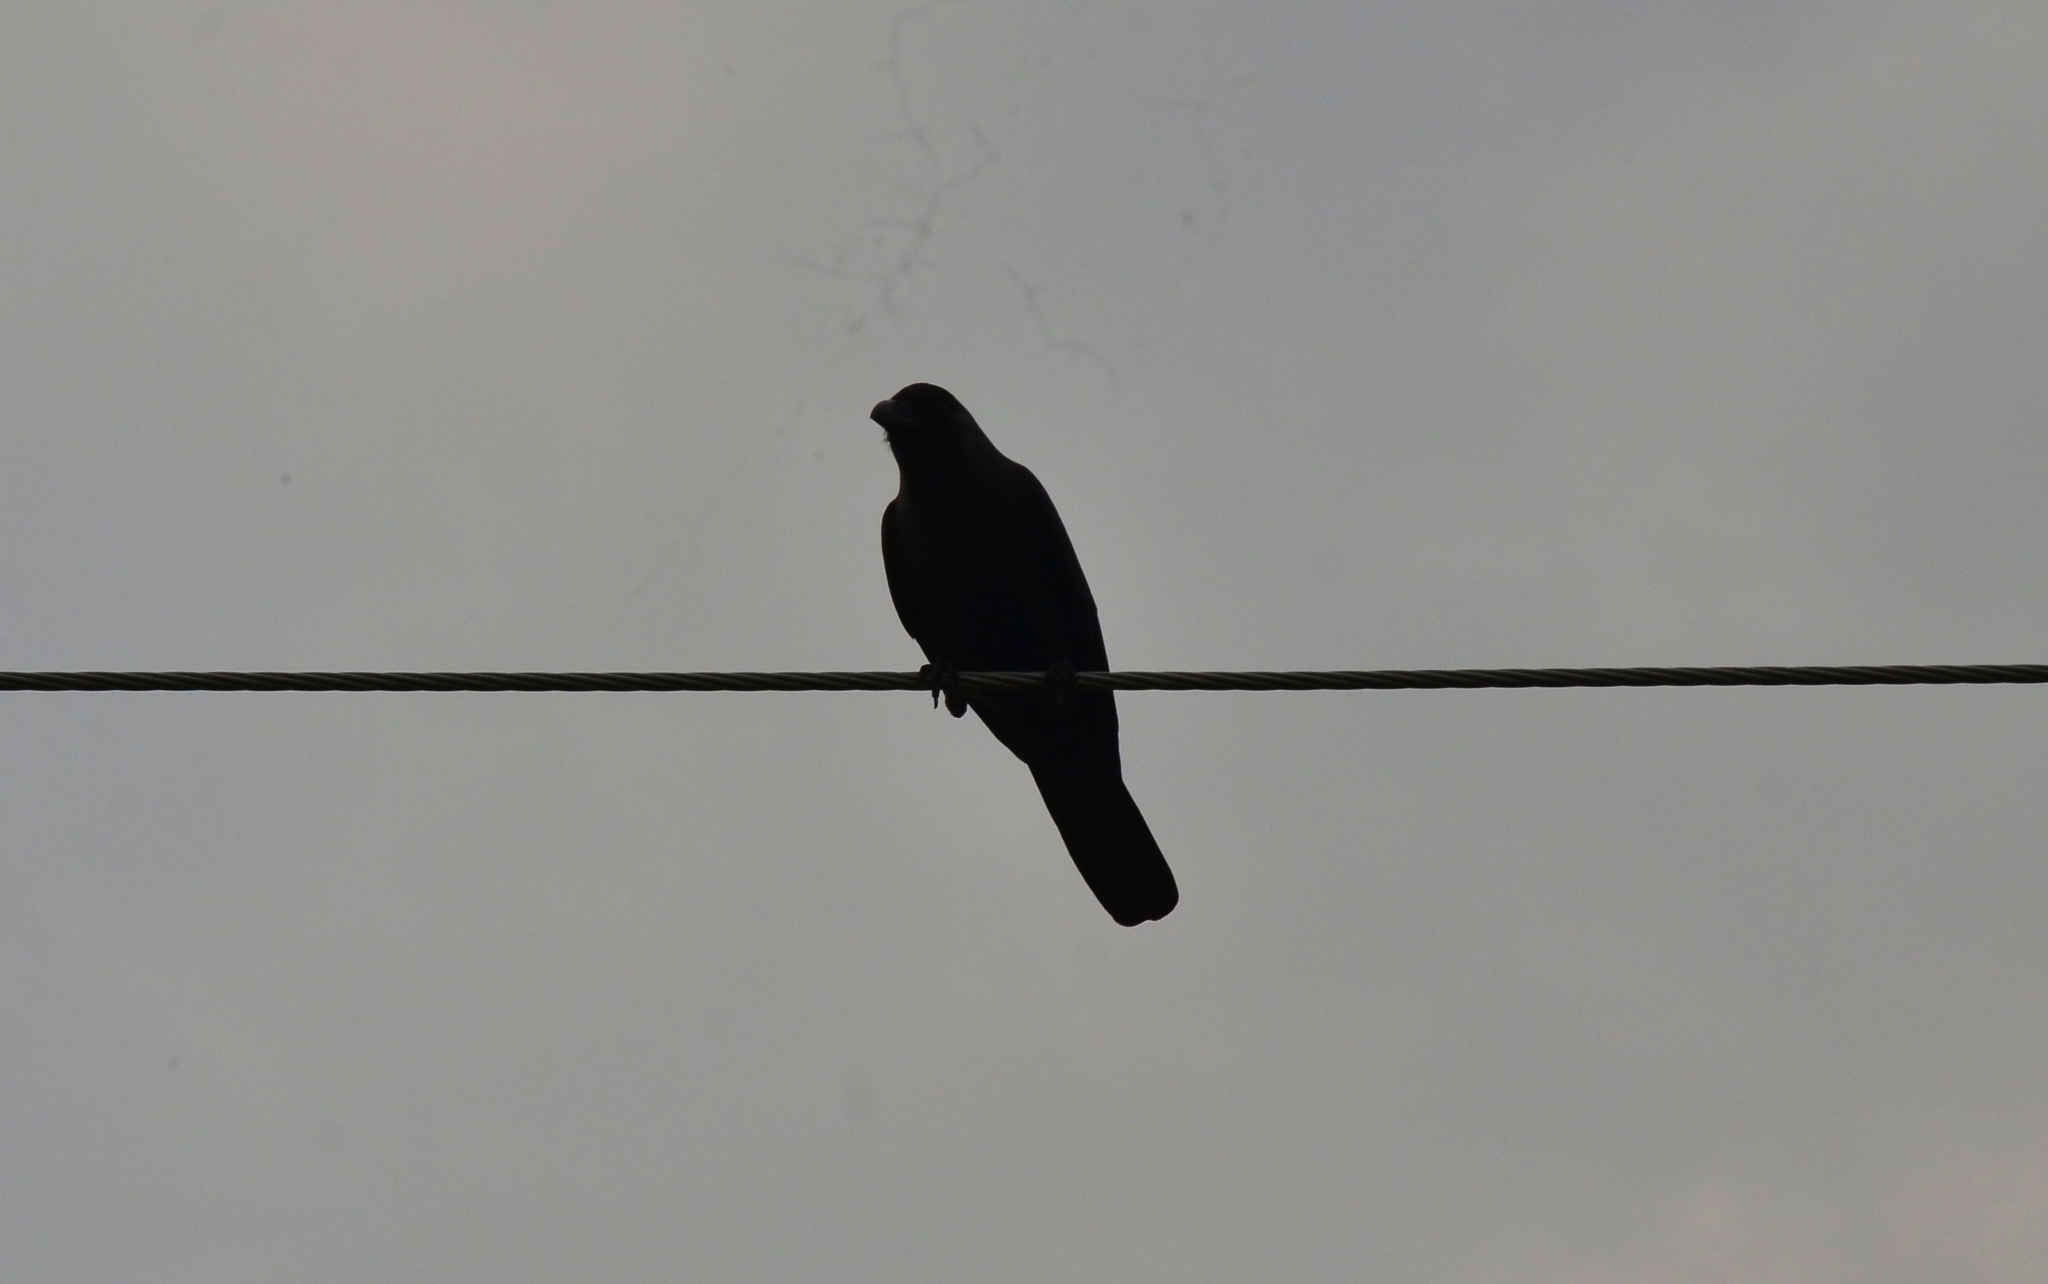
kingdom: Animalia
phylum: Chordata
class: Aves
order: Passeriformes
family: Corvidae
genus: Corvus
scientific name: Corvus splendens
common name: House crow
